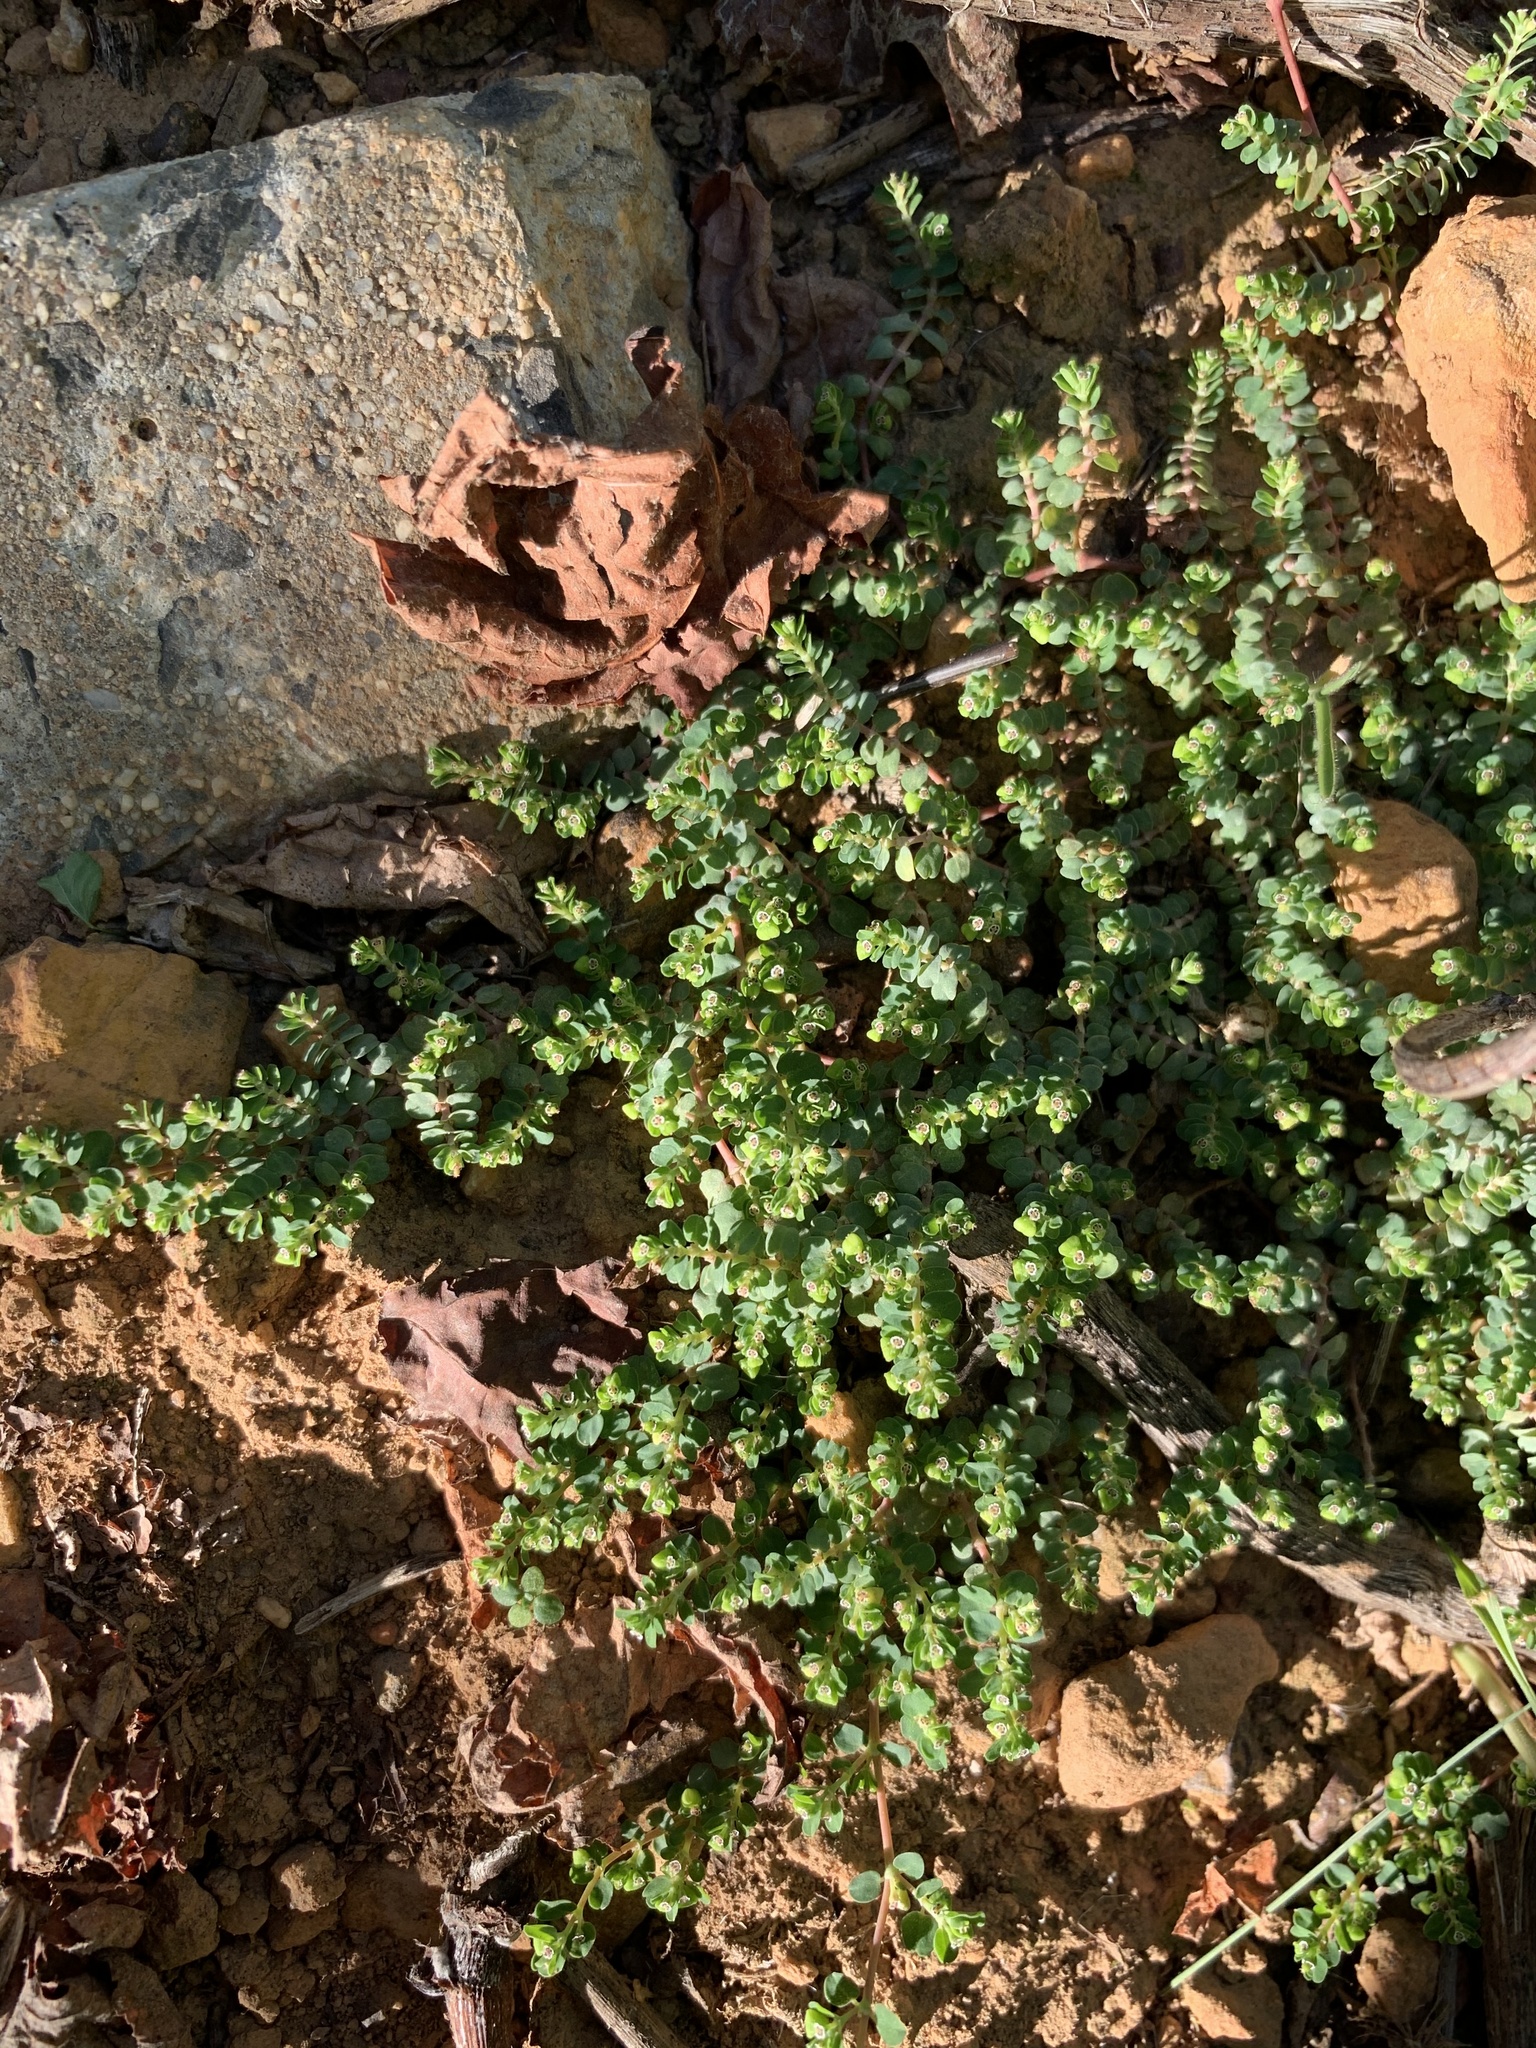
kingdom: Plantae
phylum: Tracheophyta
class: Magnoliopsida
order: Malpighiales
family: Euphorbiaceae
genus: Euphorbia
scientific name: Euphorbia serpens
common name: Matted sandmat
